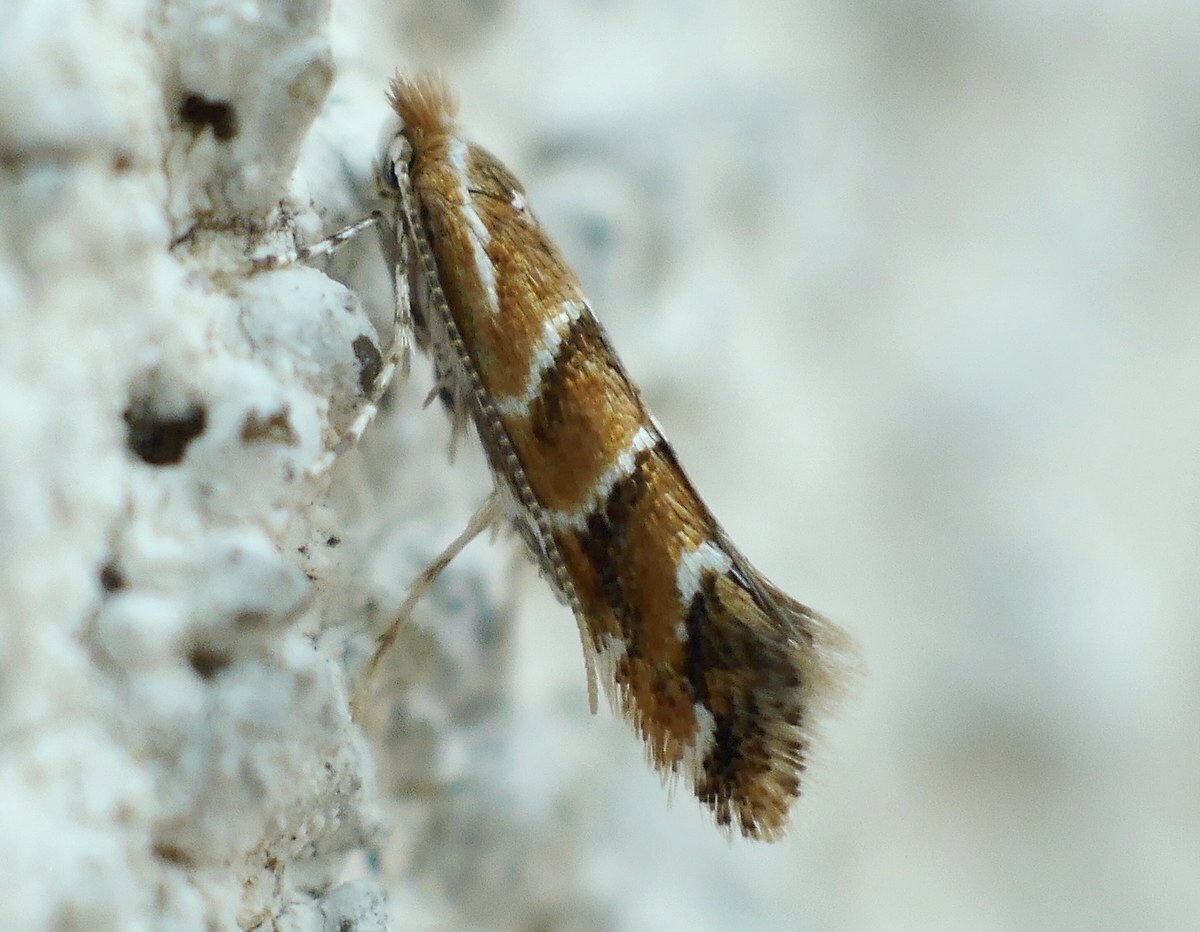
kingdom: Animalia
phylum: Arthropoda
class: Insecta
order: Lepidoptera
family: Gracillariidae
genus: Cameraria
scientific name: Cameraria ohridella
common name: Horse-chestnut leaf-miner
